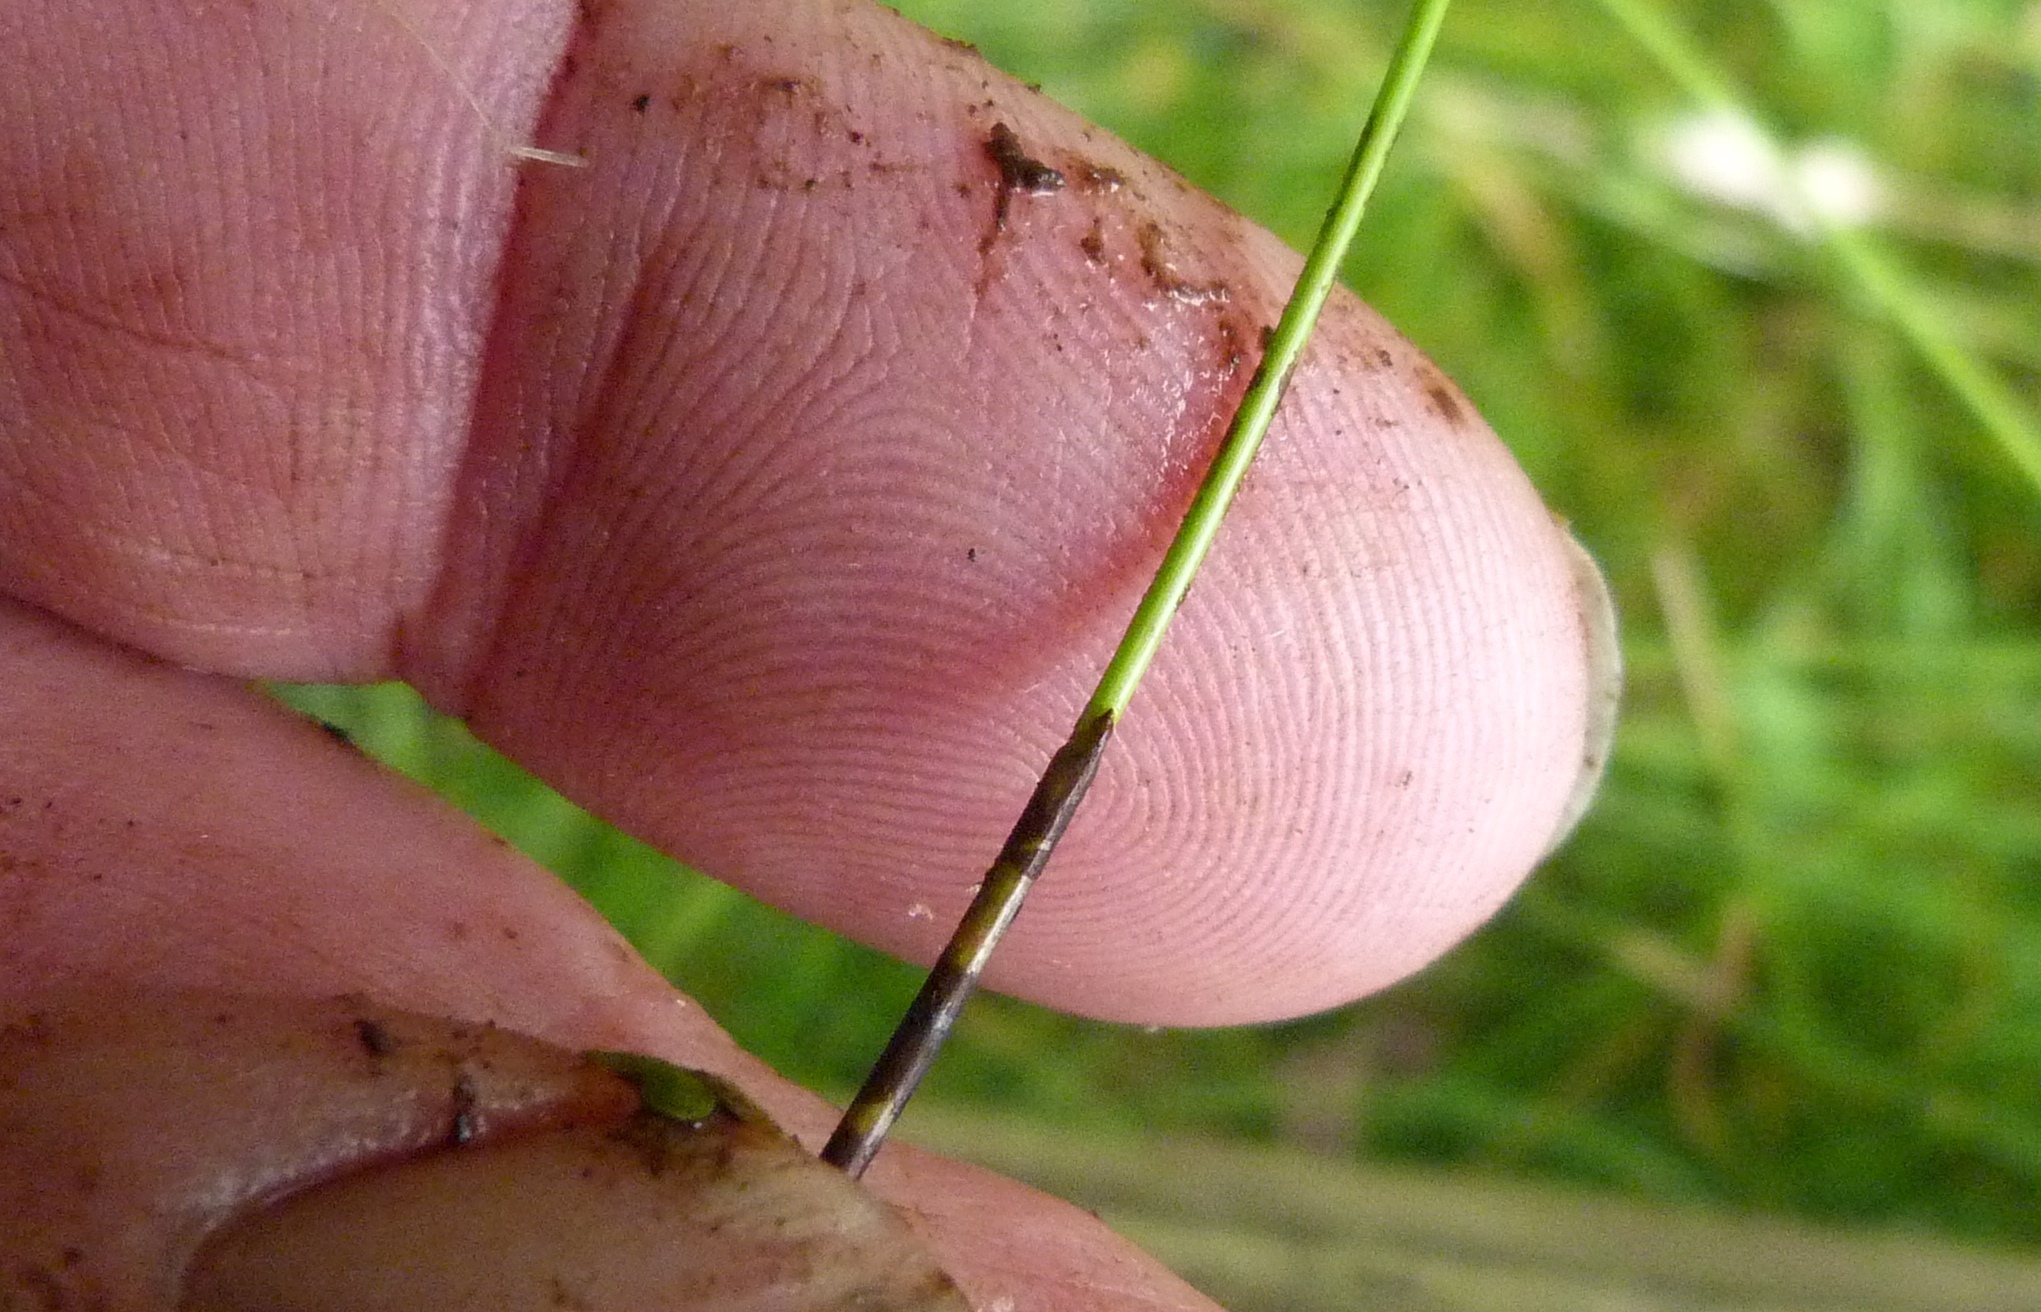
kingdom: Plantae
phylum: Tracheophyta
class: Liliopsida
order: Poales
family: Cyperaceae
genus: Eleocharis
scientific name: Eleocharis gracilis
